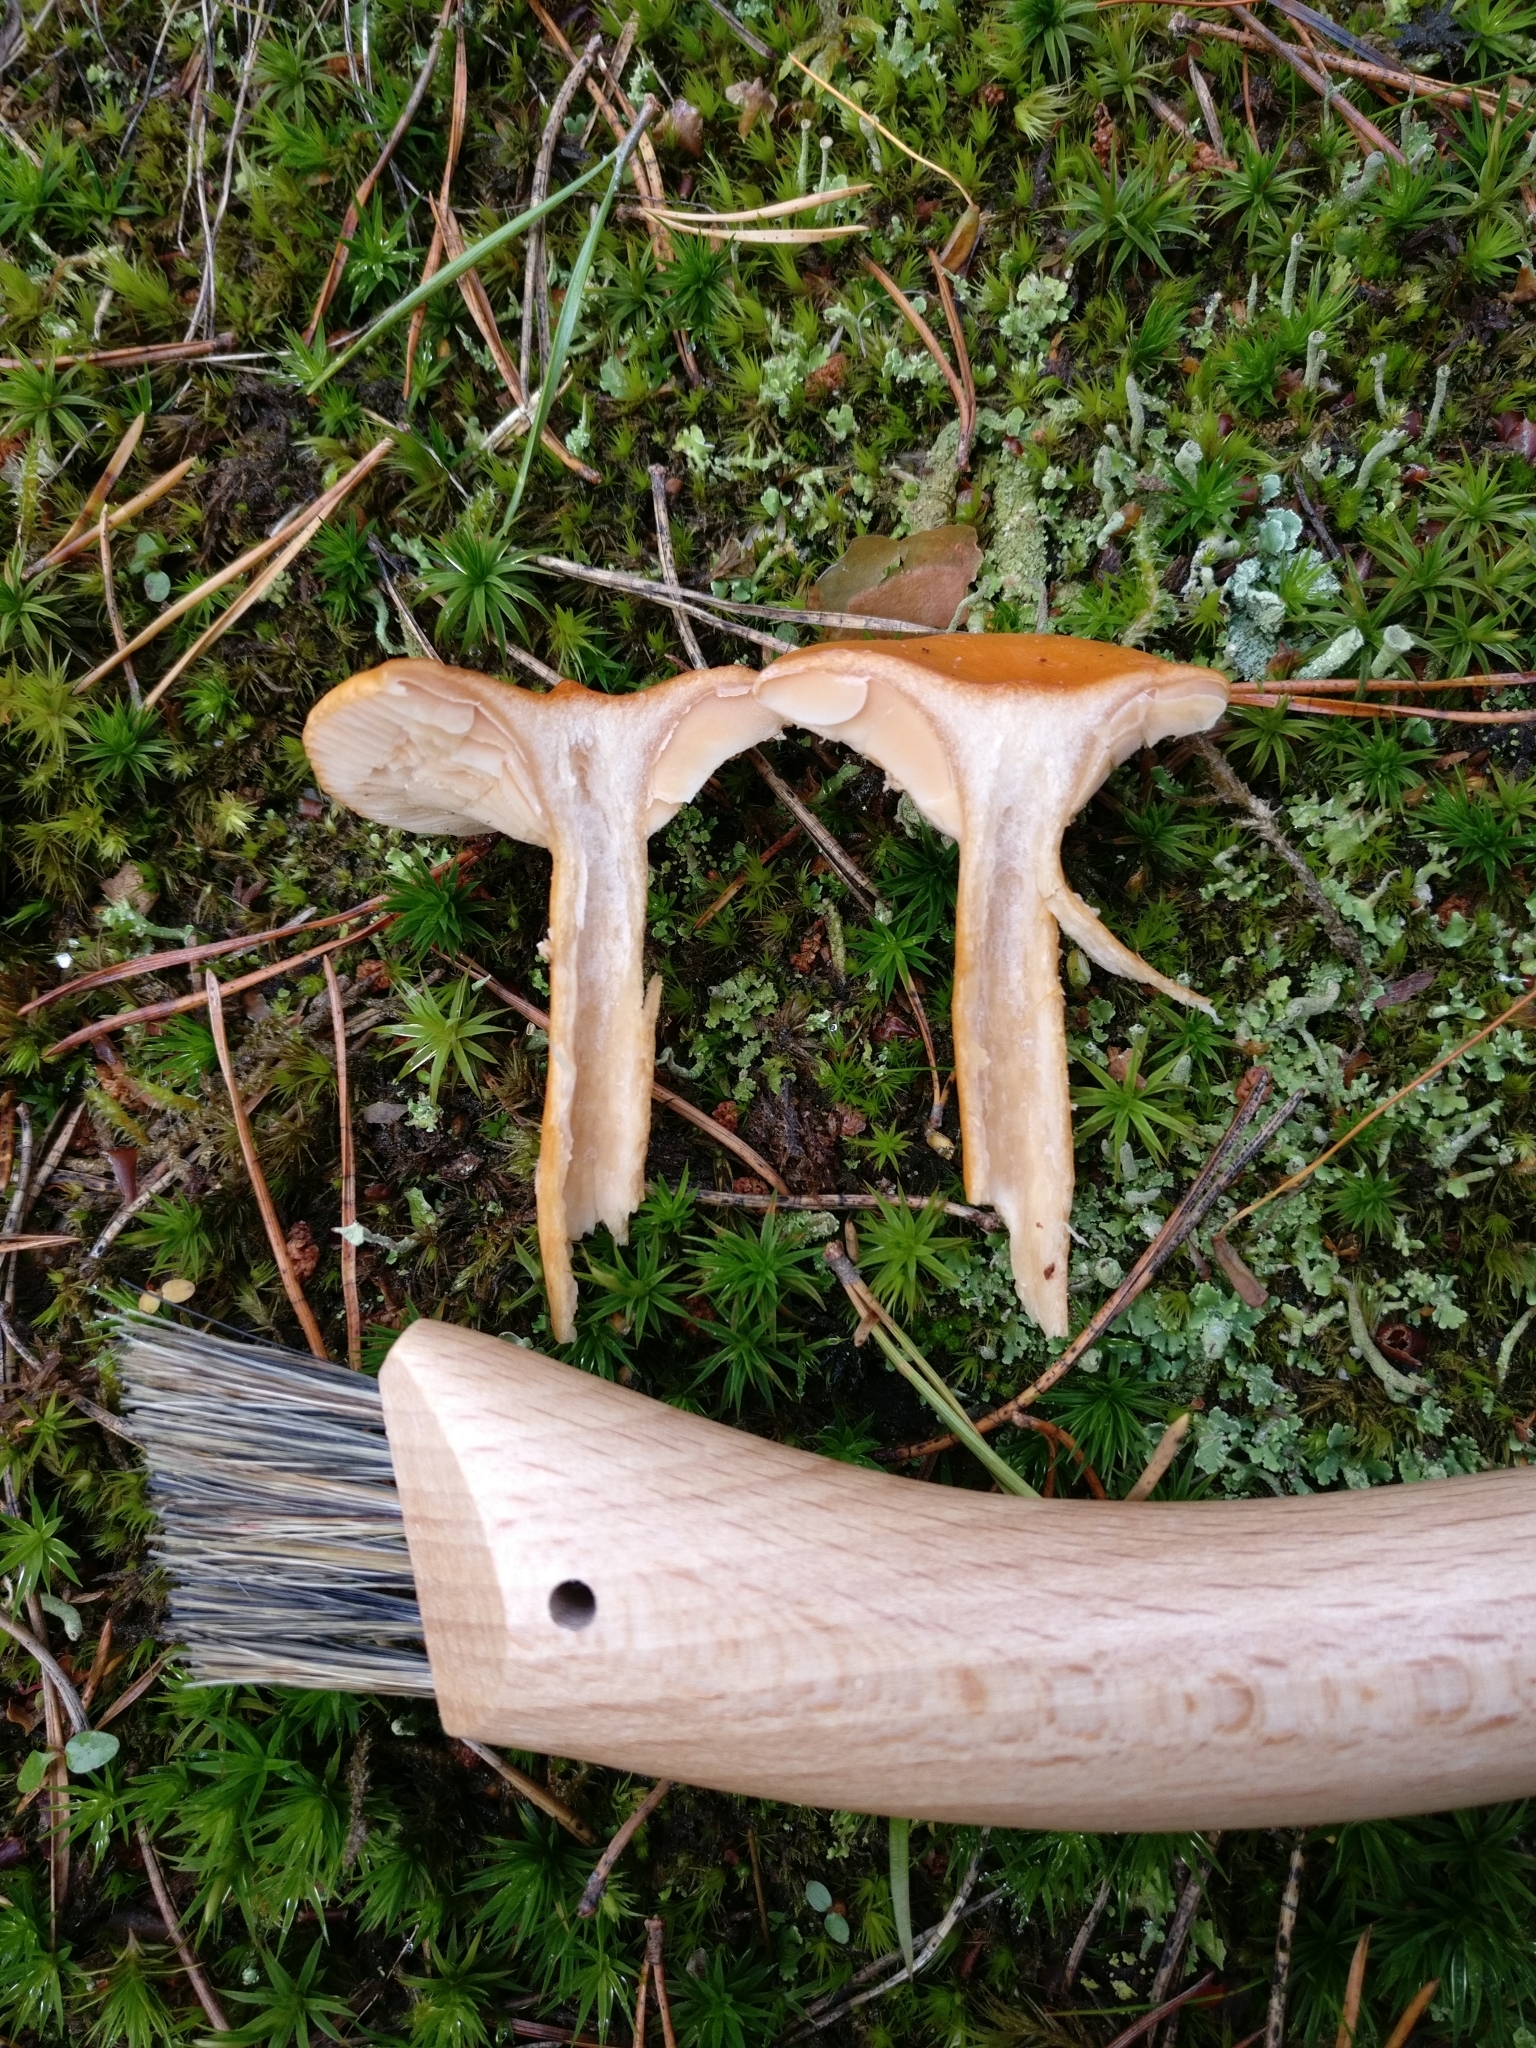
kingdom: Fungi
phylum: Basidiomycota
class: Agaricomycetes
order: Russulales
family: Russulaceae
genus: Lactarius
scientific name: Lactarius aurantiacus
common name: Orange milkcap
